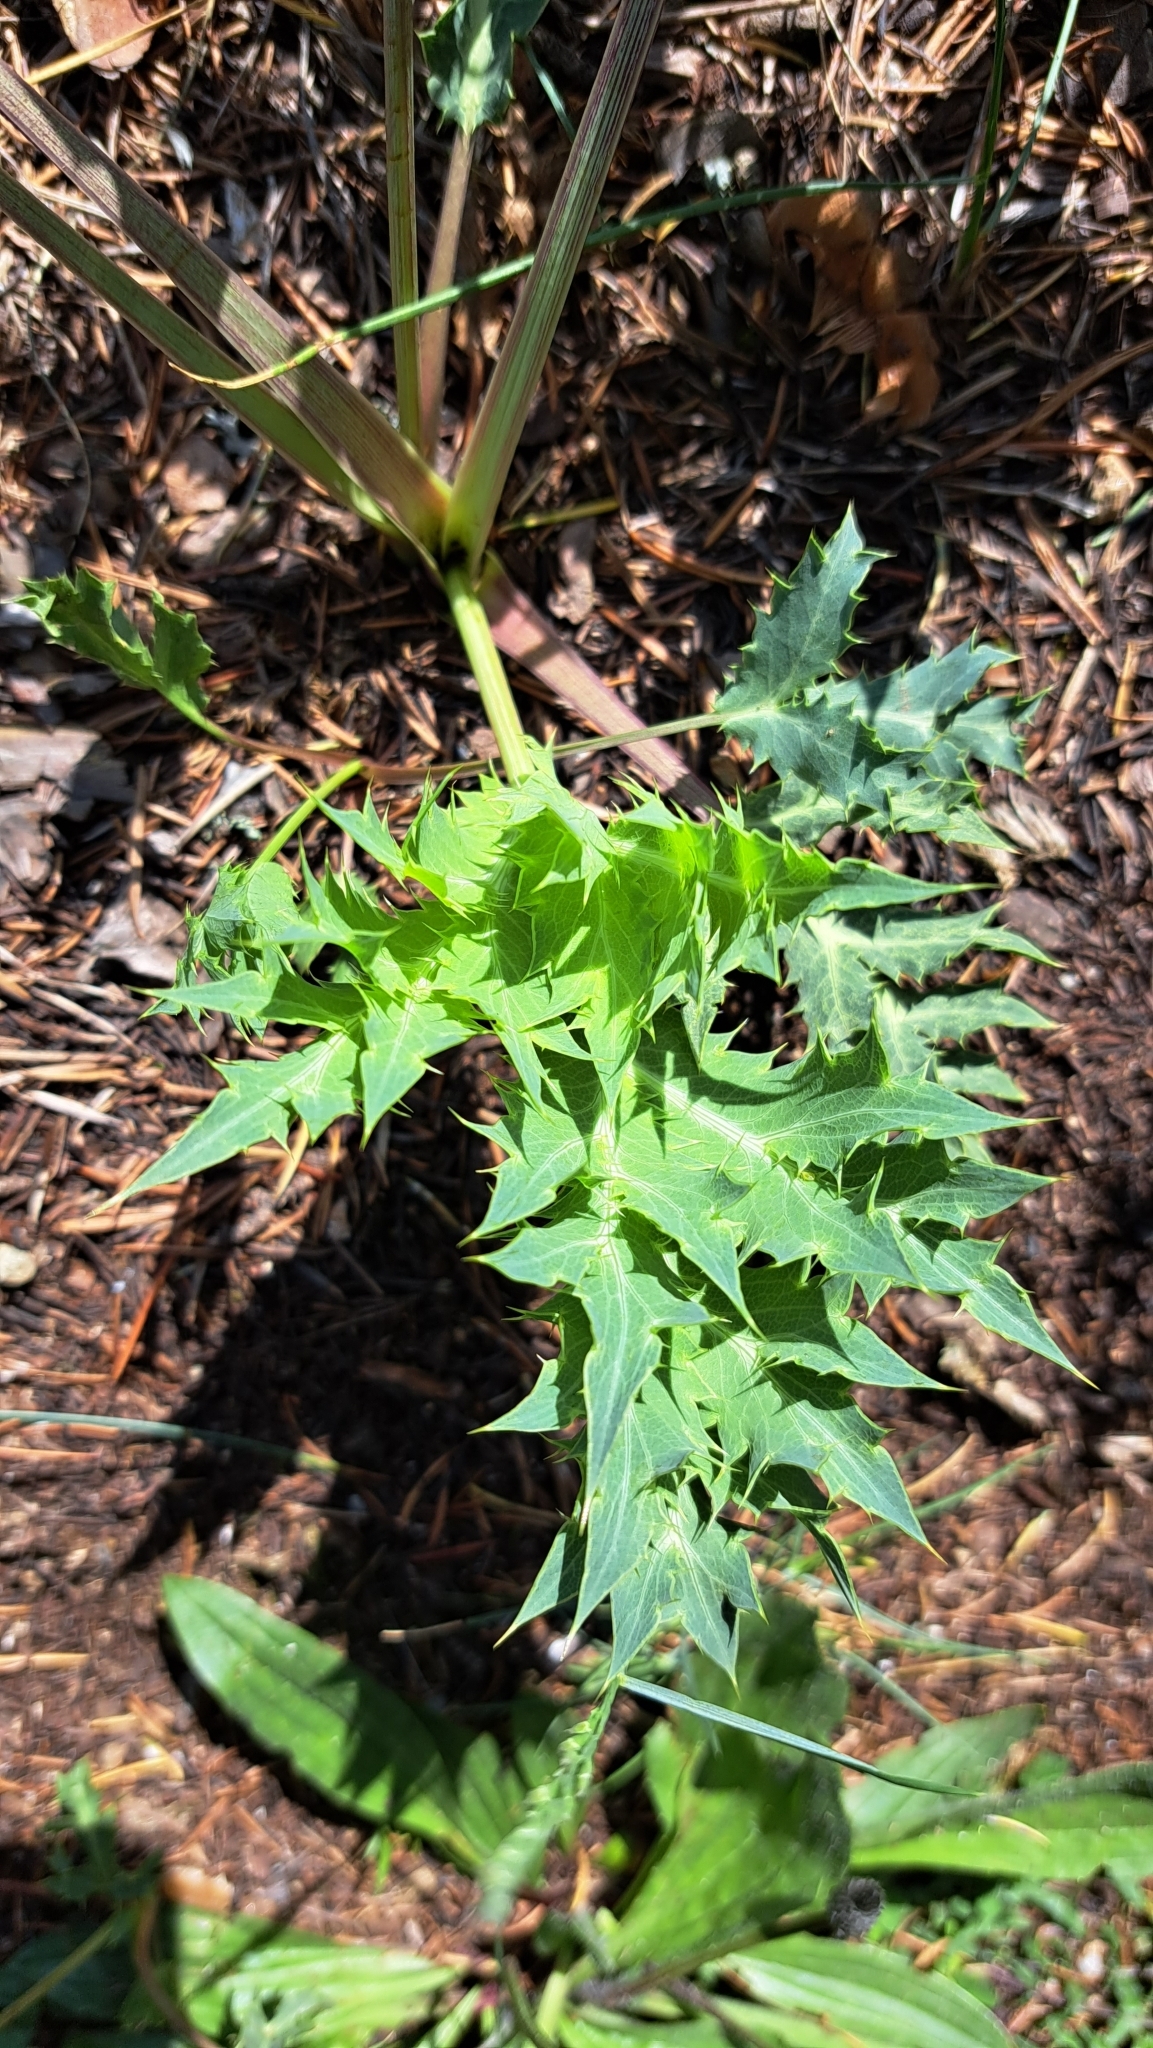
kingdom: Plantae
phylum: Tracheophyta
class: Magnoliopsida
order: Apiales
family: Apiaceae
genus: Eryngium
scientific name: Eryngium campestre
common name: Field eryngo
